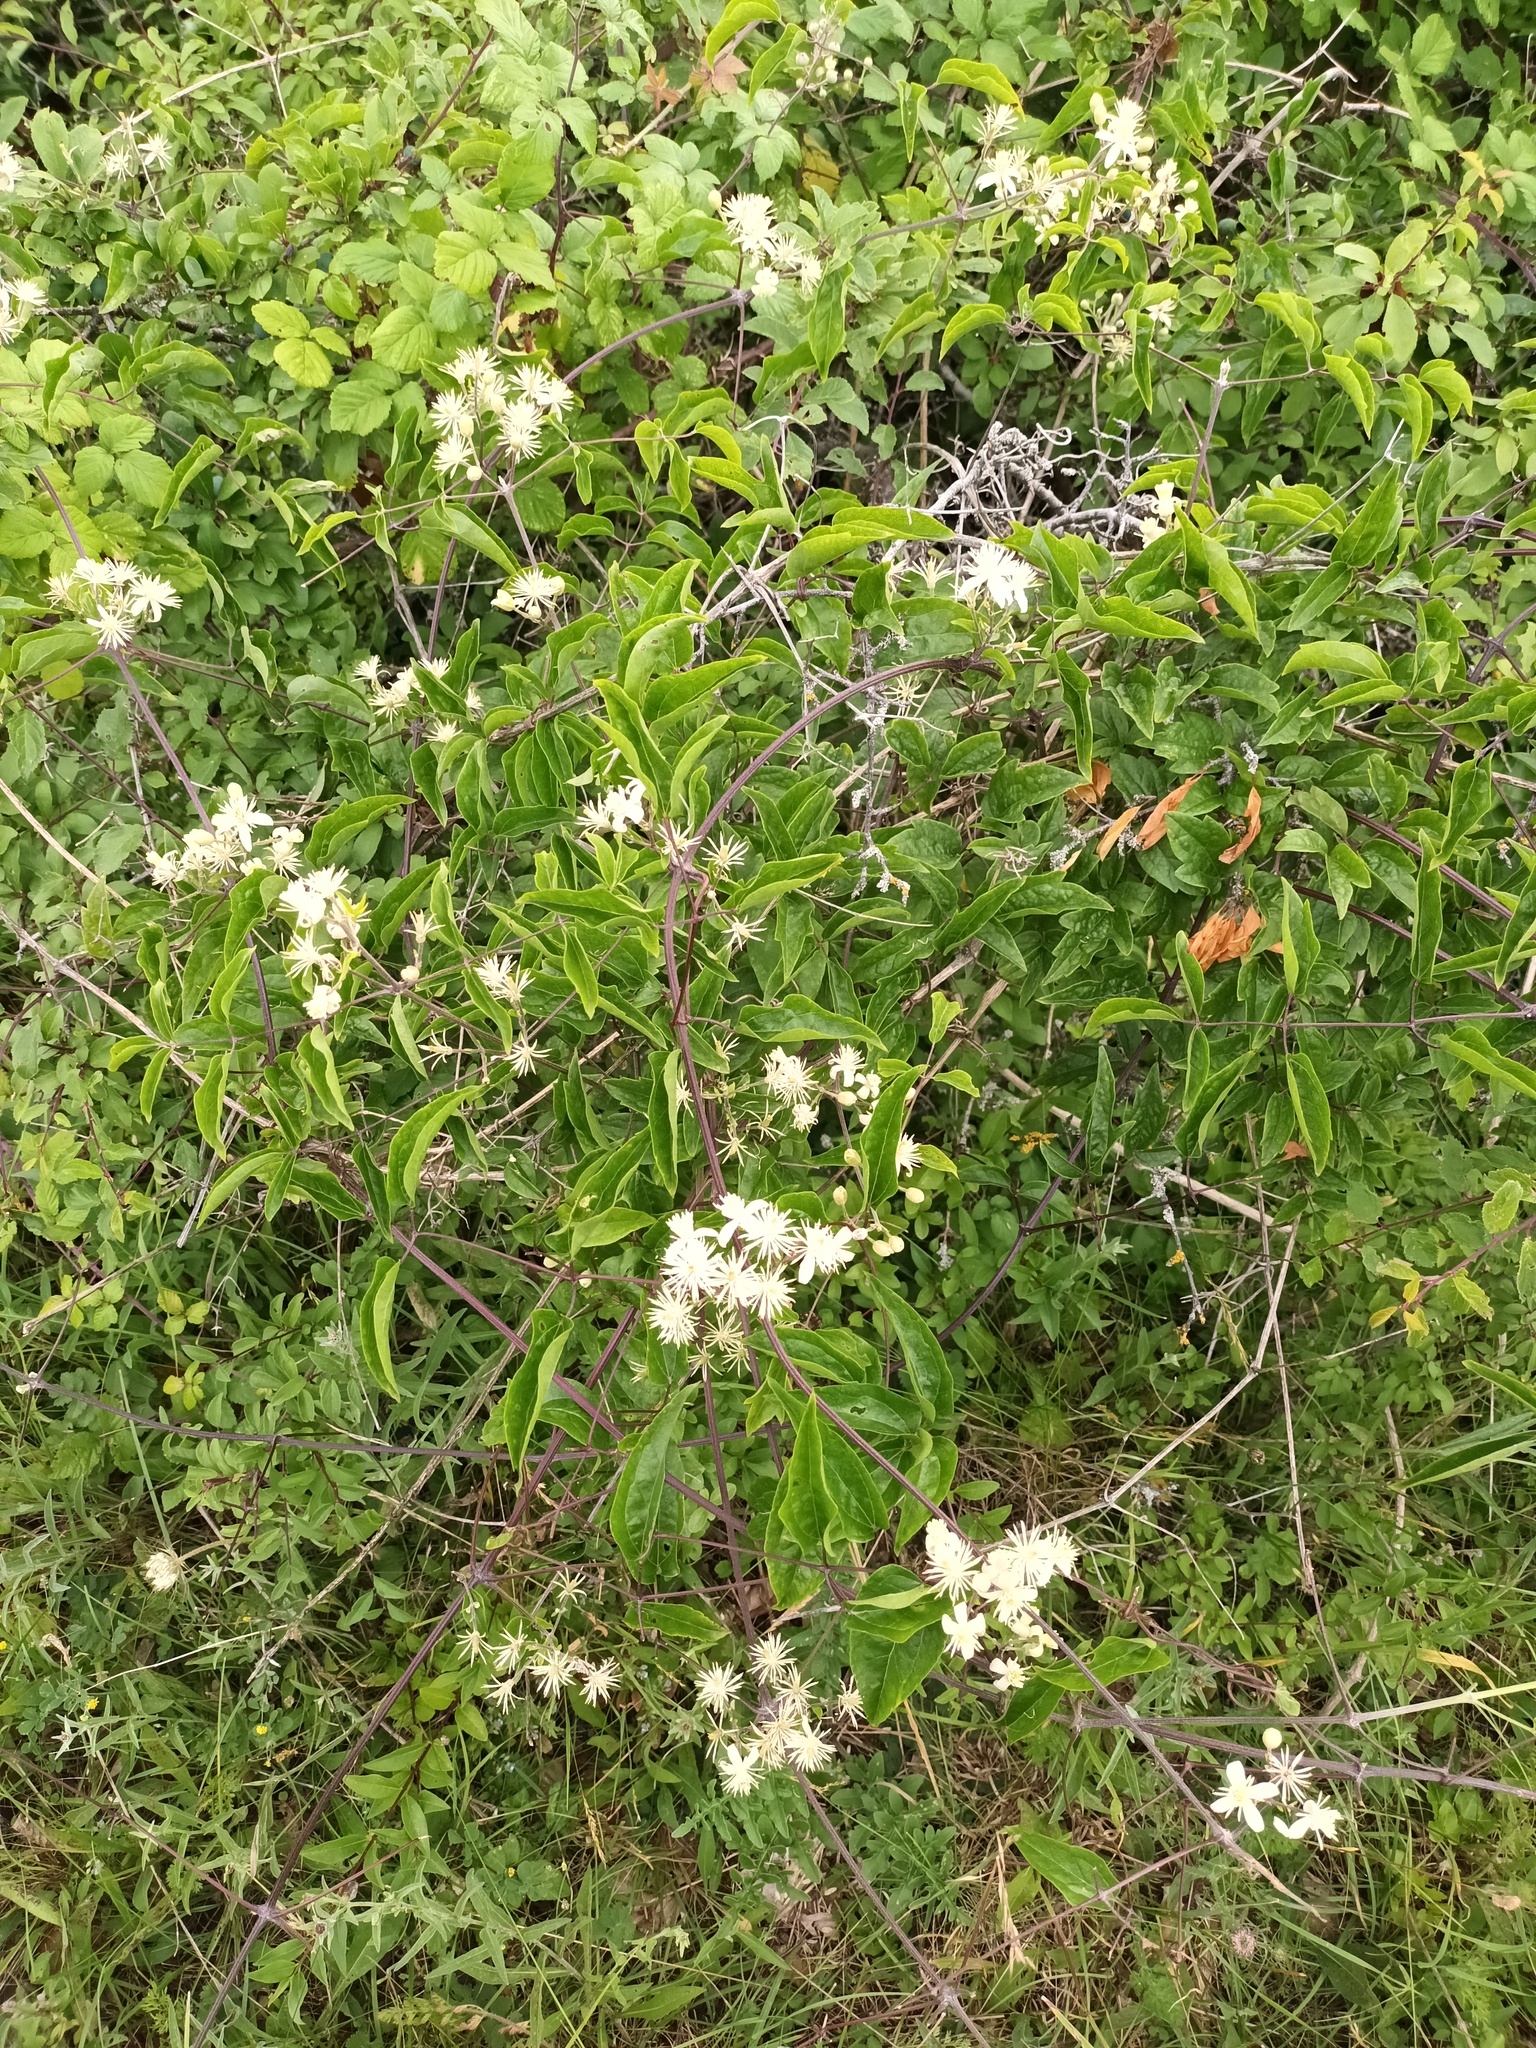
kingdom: Plantae
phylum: Tracheophyta
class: Magnoliopsida
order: Ranunculales
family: Ranunculaceae
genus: Clematis
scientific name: Clematis vitalba
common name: Evergreen clematis
